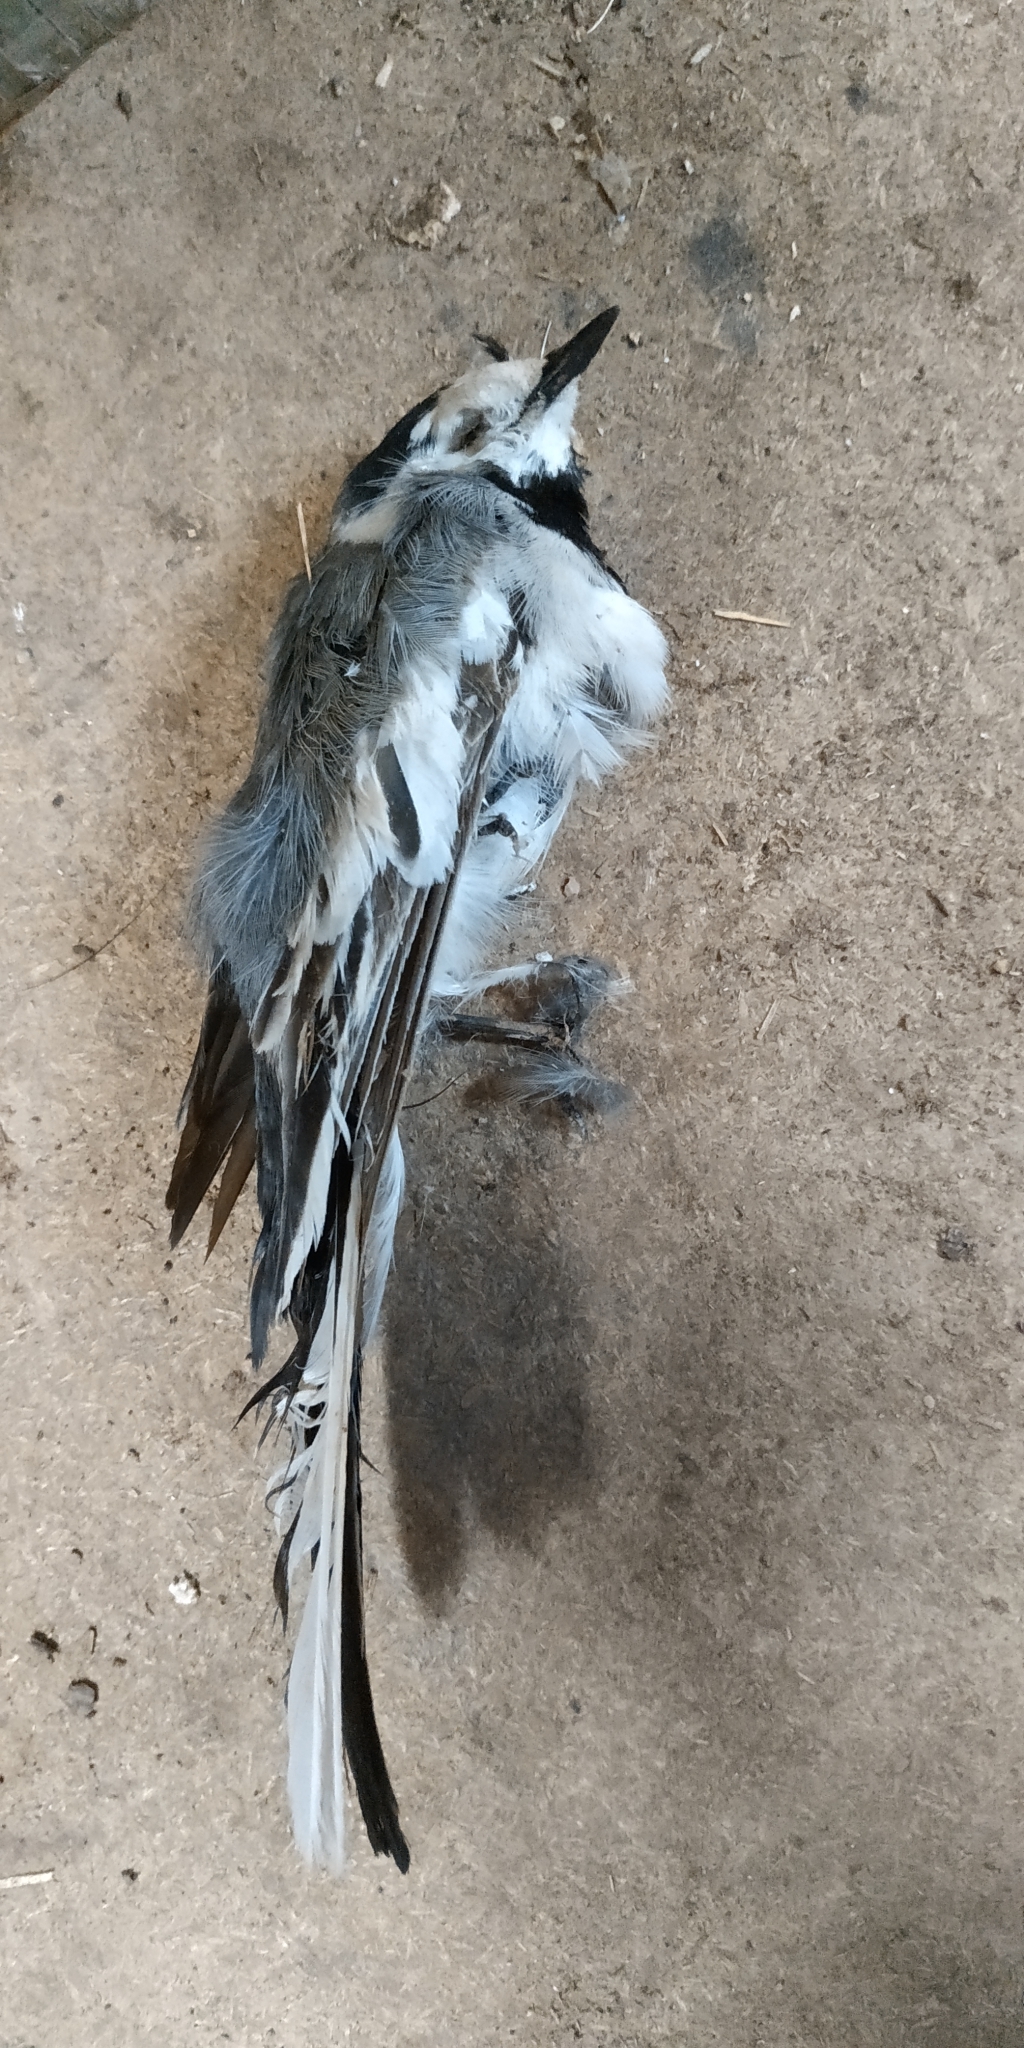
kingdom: Animalia
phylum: Chordata
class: Aves
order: Passeriformes
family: Motacillidae
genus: Motacilla
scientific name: Motacilla alba
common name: White wagtail
